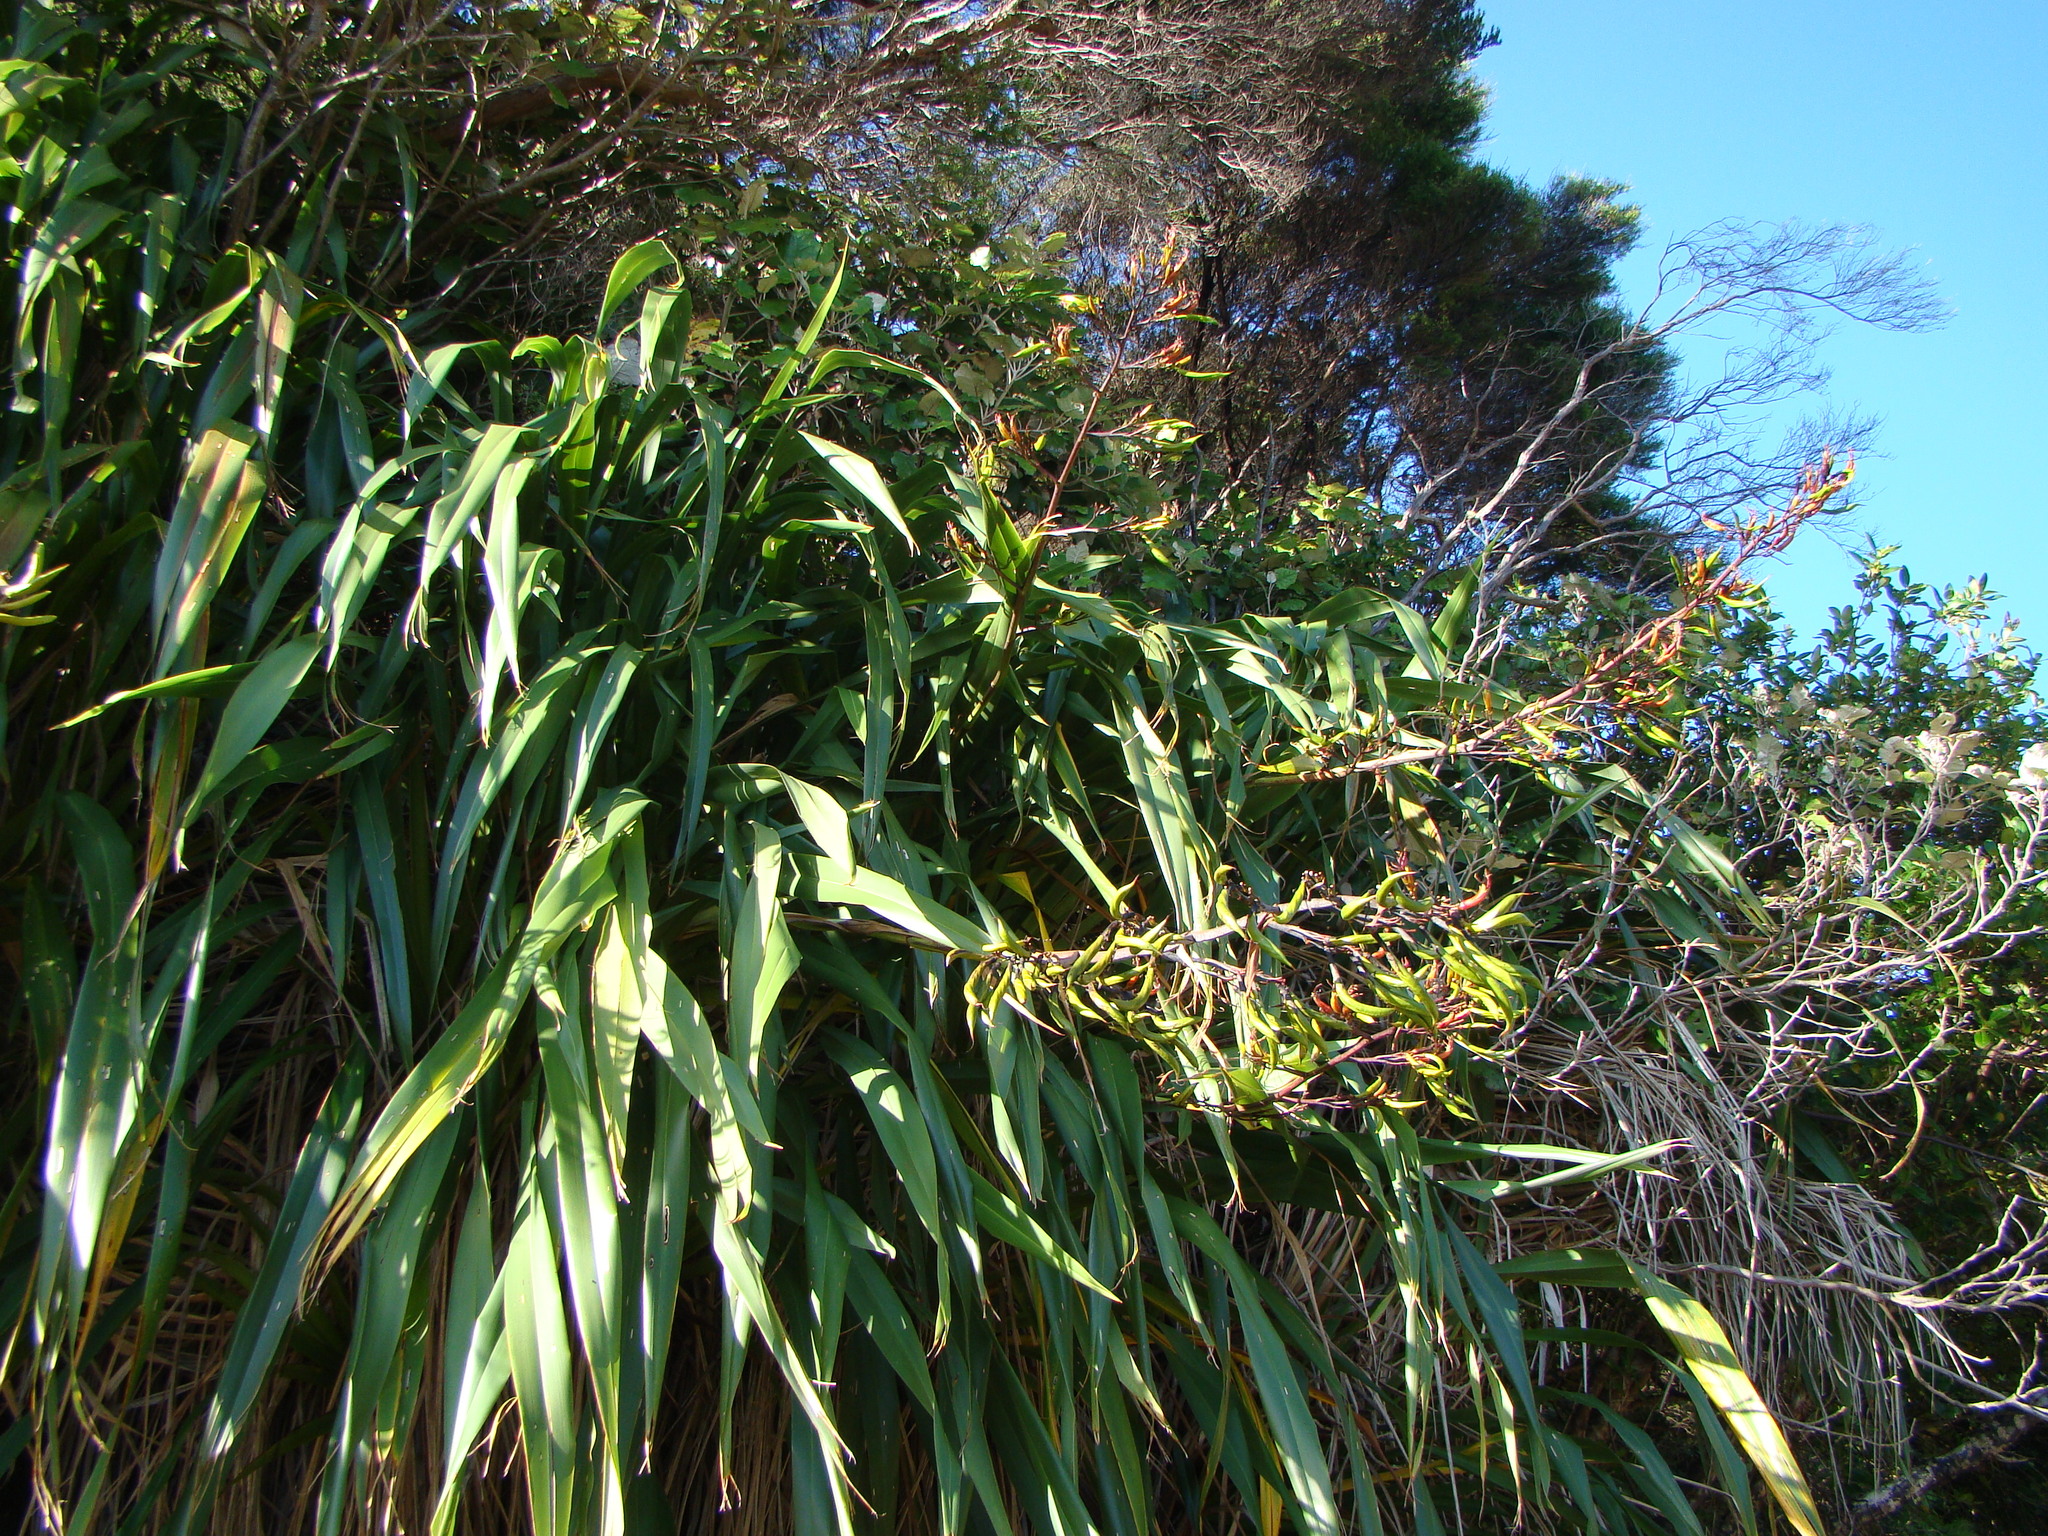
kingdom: Plantae
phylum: Tracheophyta
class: Liliopsida
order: Asparagales
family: Asphodelaceae
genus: Phormium
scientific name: Phormium colensoi
